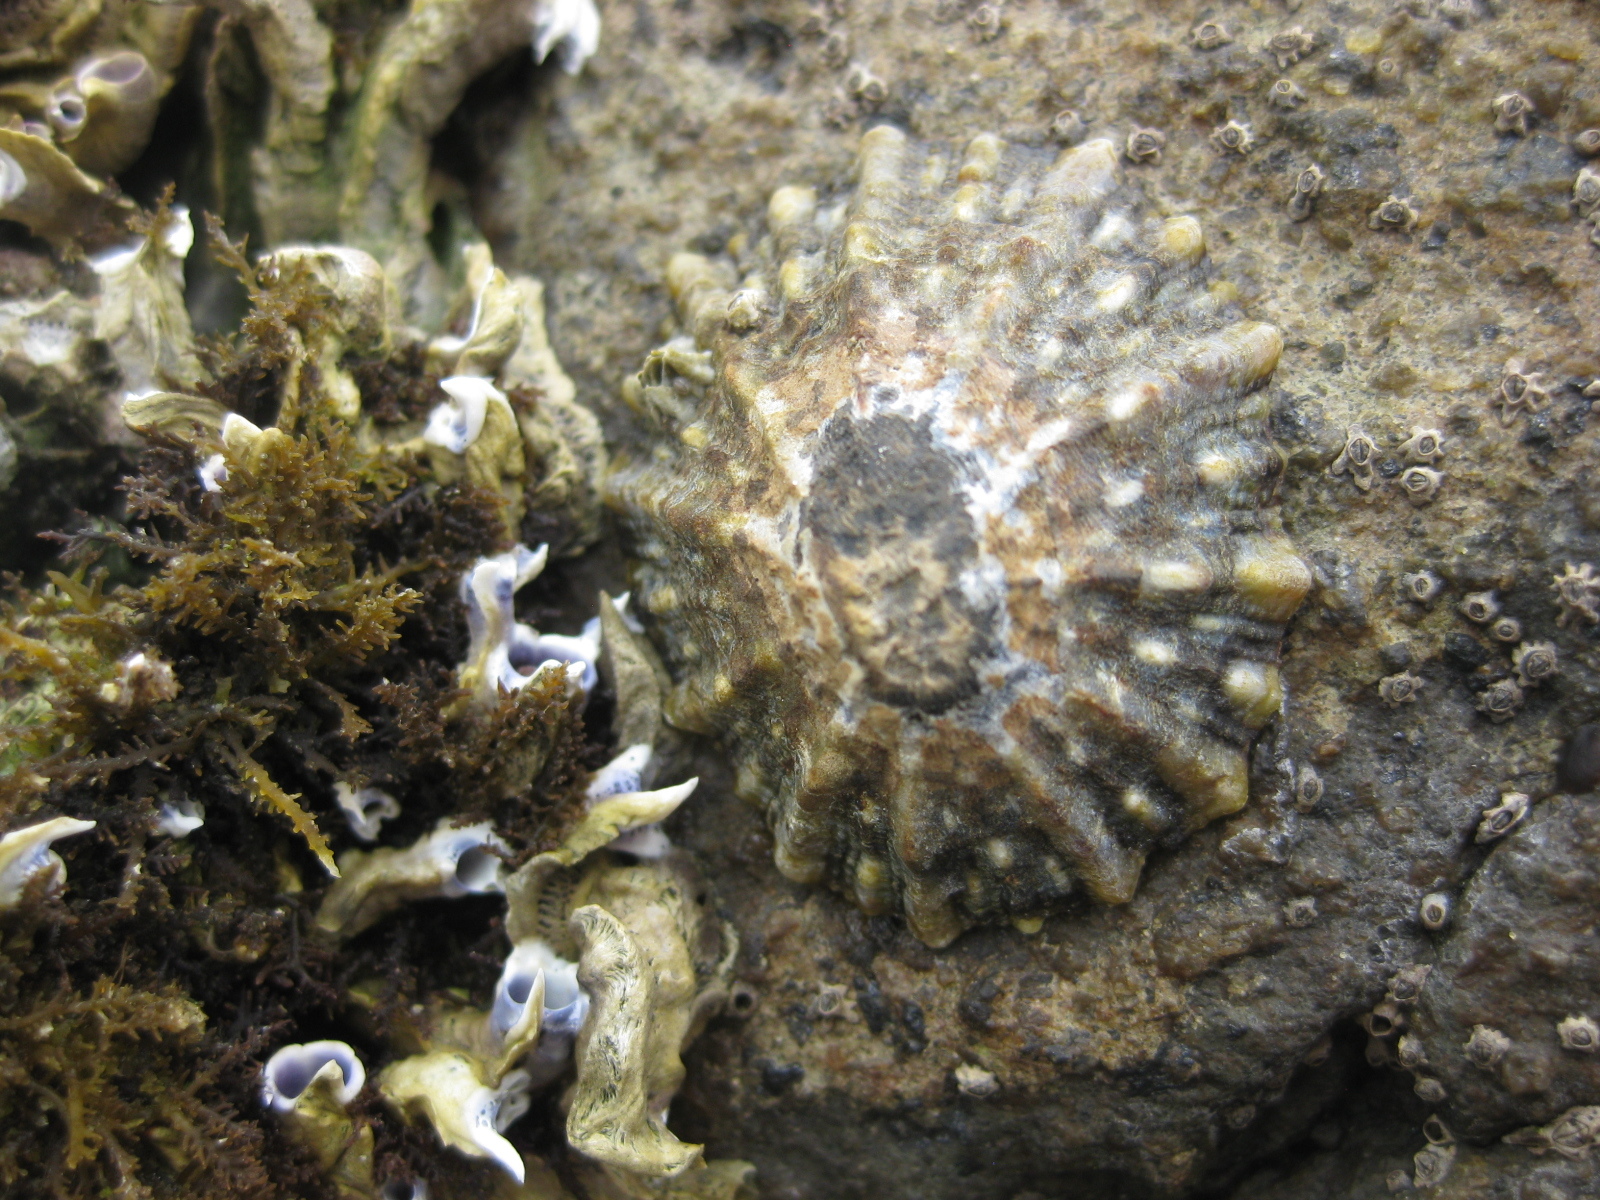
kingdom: Animalia
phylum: Mollusca
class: Gastropoda
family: Nacellidae
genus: Cellana
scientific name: Cellana ornata
